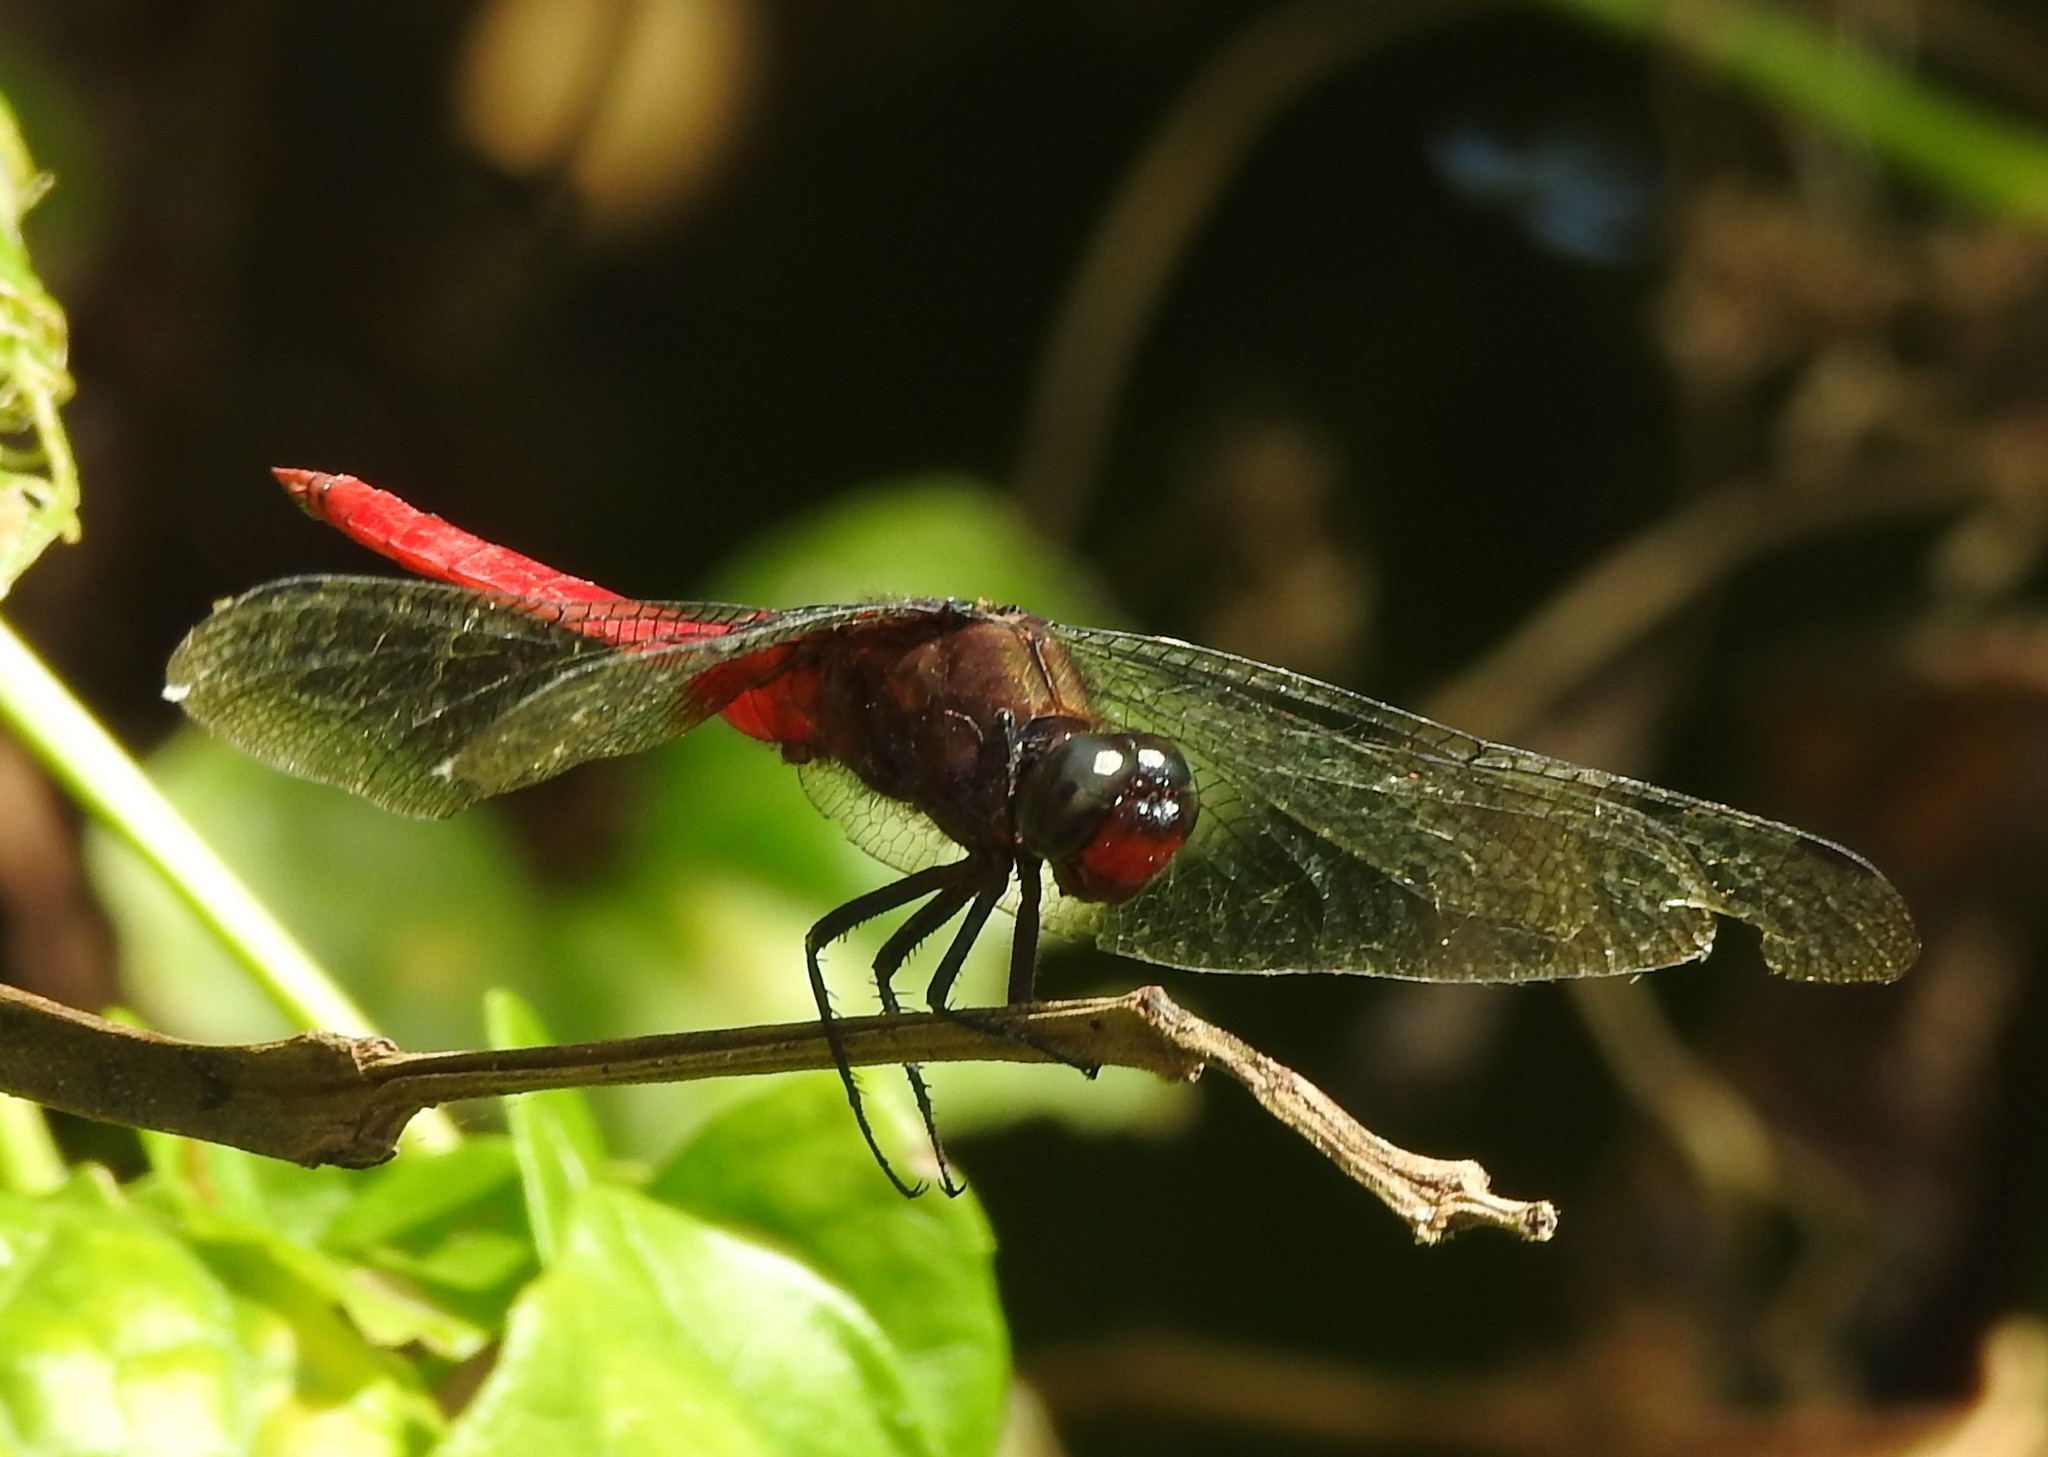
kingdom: Animalia
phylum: Arthropoda
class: Insecta
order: Odonata
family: Libellulidae
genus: Orthetrum
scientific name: Orthetrum chrysis
